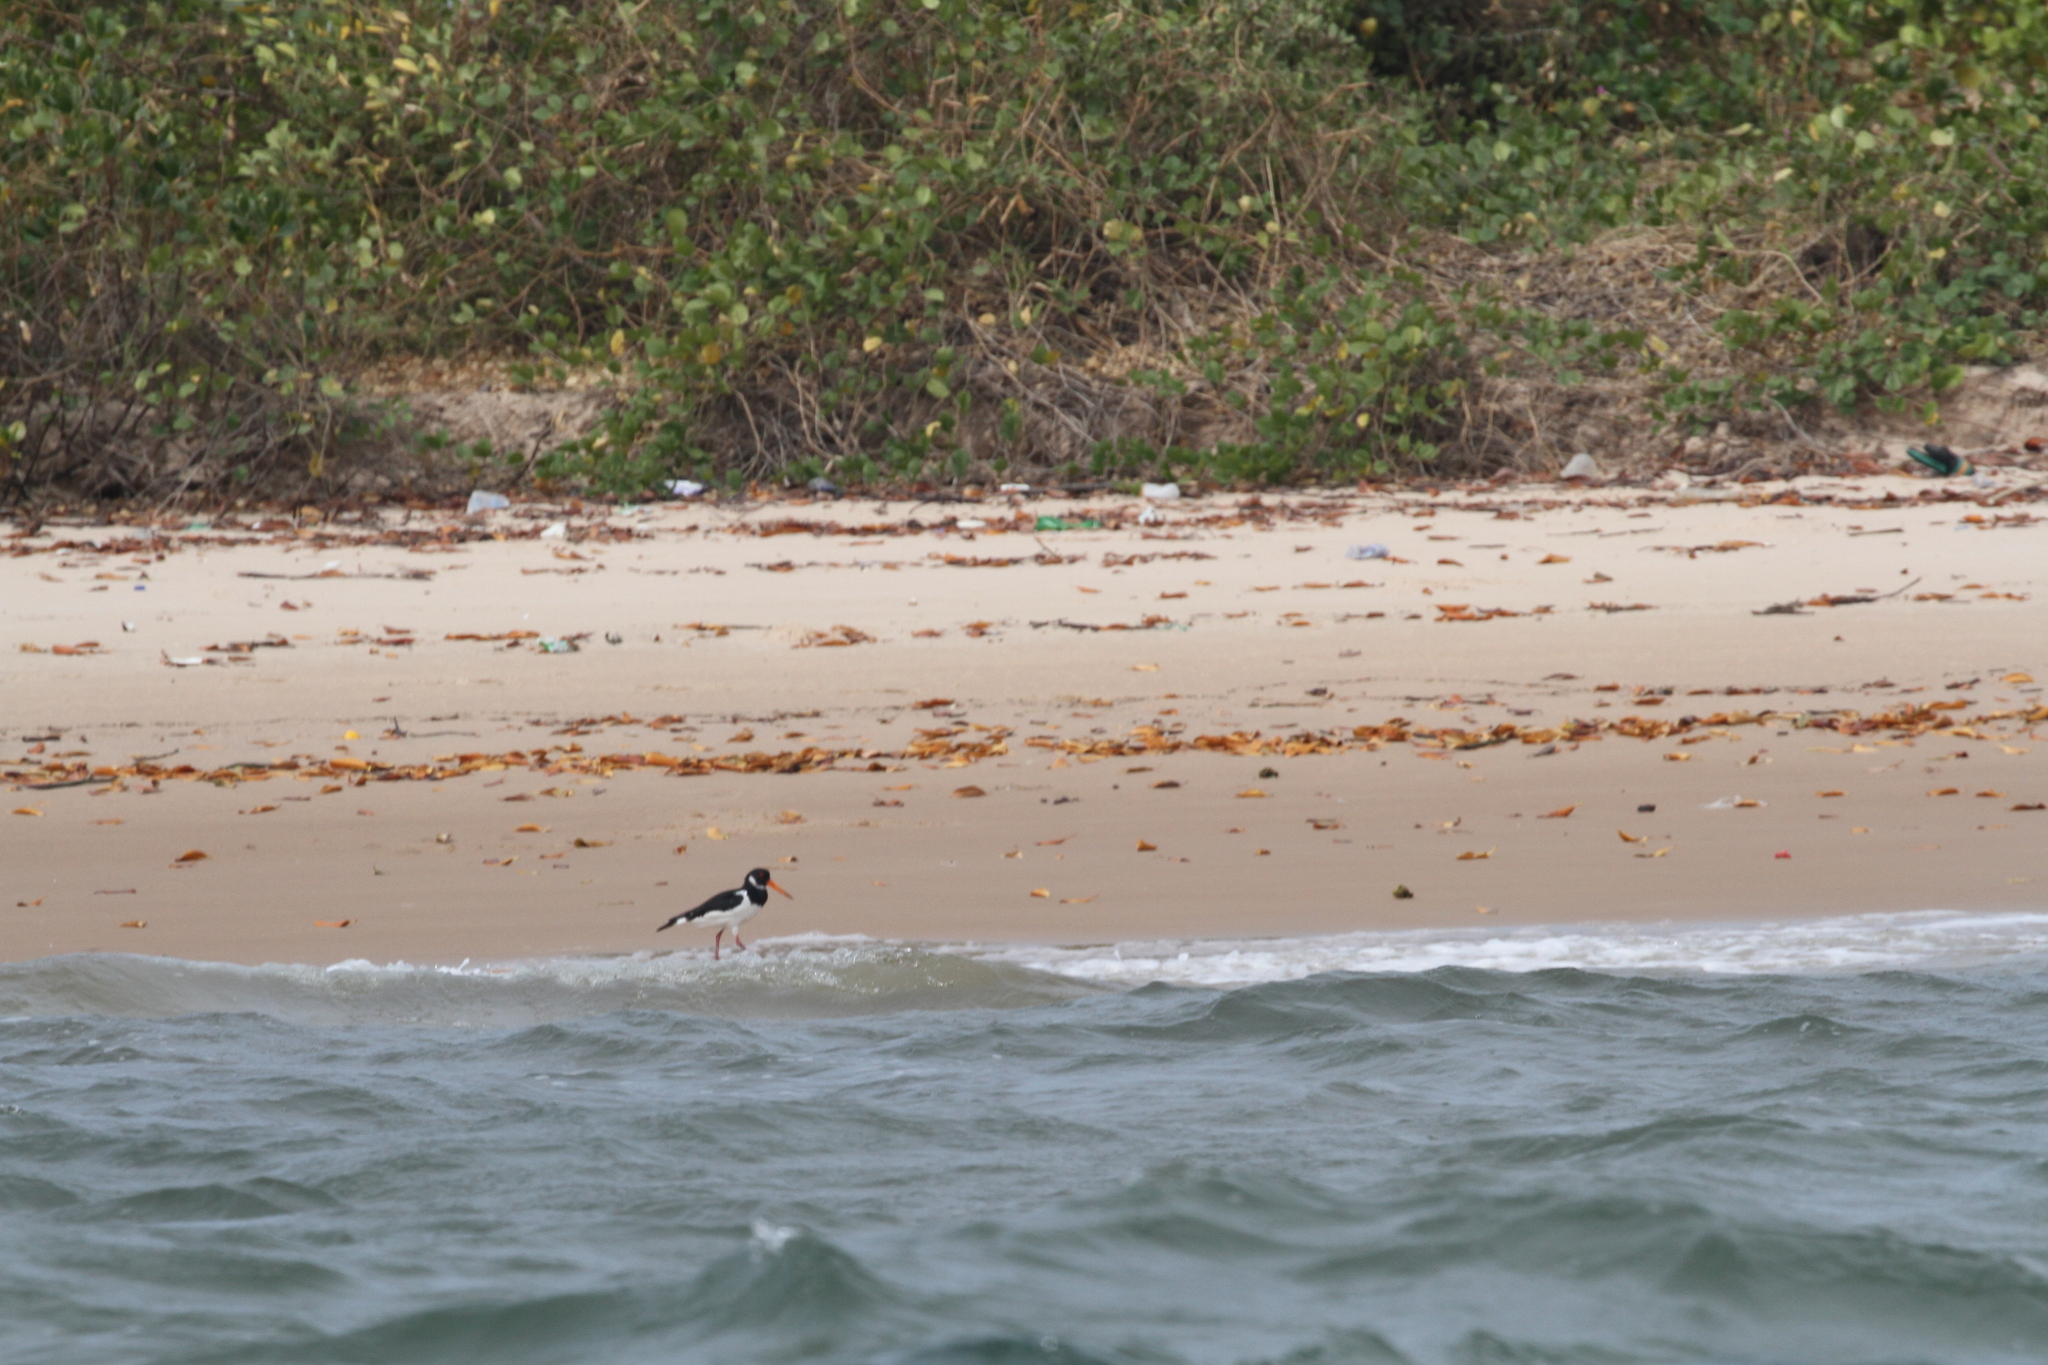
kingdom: Animalia
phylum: Chordata
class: Aves
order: Charadriiformes
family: Haematopodidae
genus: Haematopus
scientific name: Haematopus ostralegus
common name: Eurasian oystercatcher
